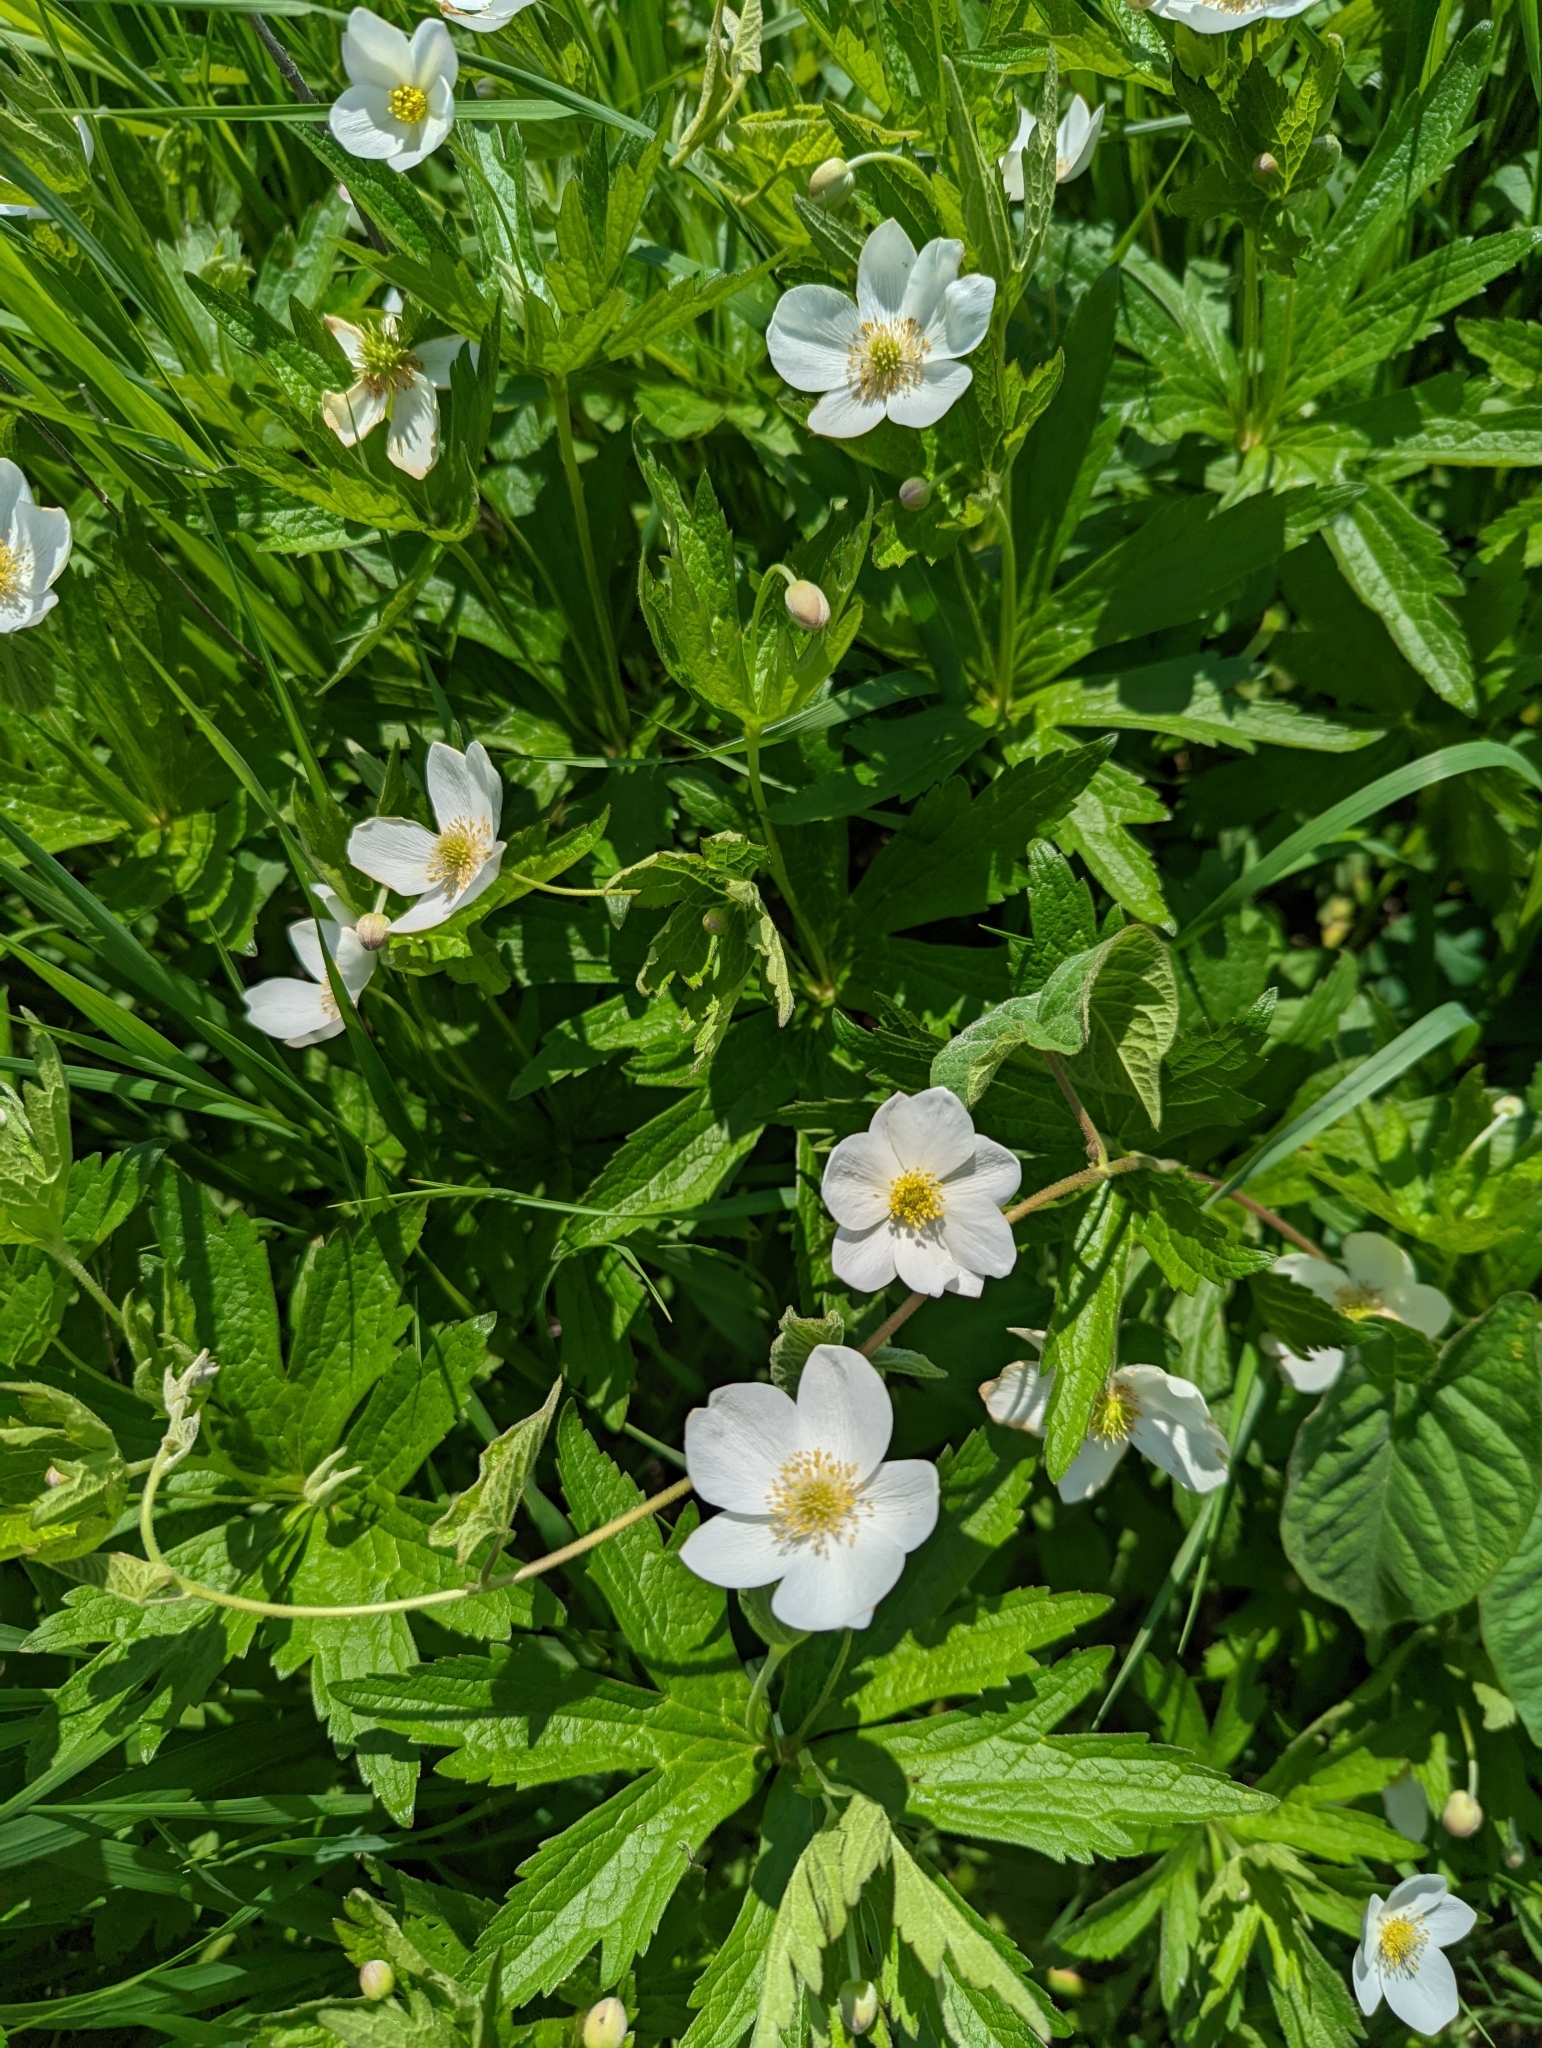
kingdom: Plantae
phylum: Tracheophyta
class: Magnoliopsida
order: Ranunculales
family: Ranunculaceae
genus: Anemonastrum
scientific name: Anemonastrum canadense
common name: Canada anemone
